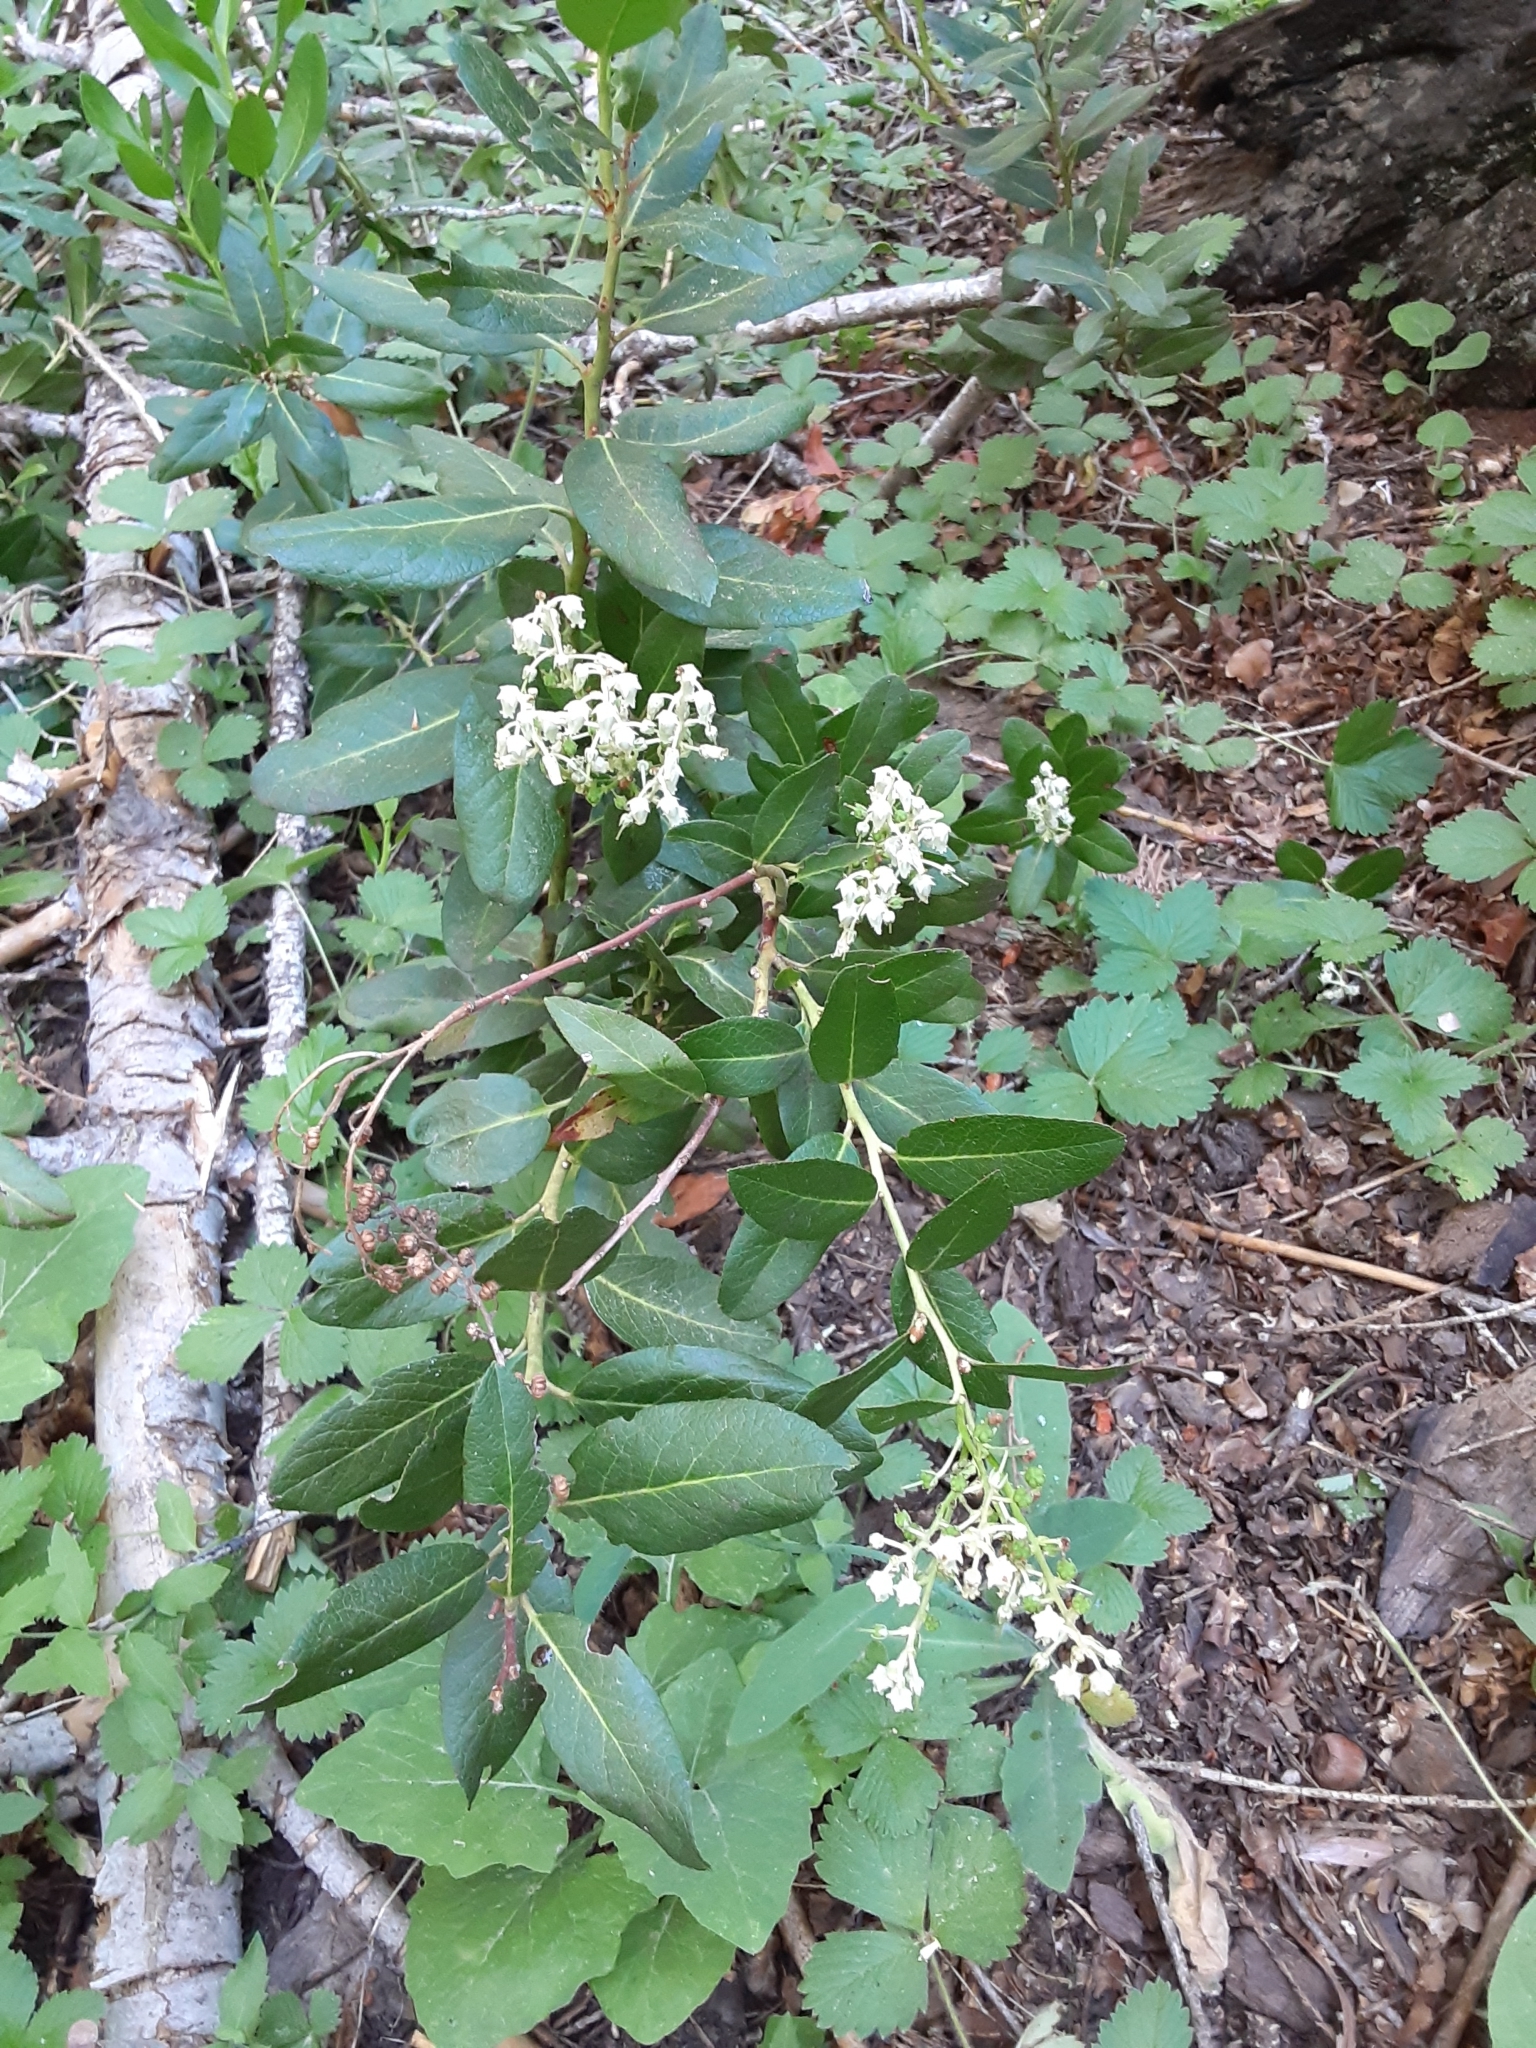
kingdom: Plantae
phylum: Tracheophyta
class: Magnoliopsida
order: Ericales
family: Ericaceae
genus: Leucothoe
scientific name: Leucothoe davisiae
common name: Sierra-laurel
